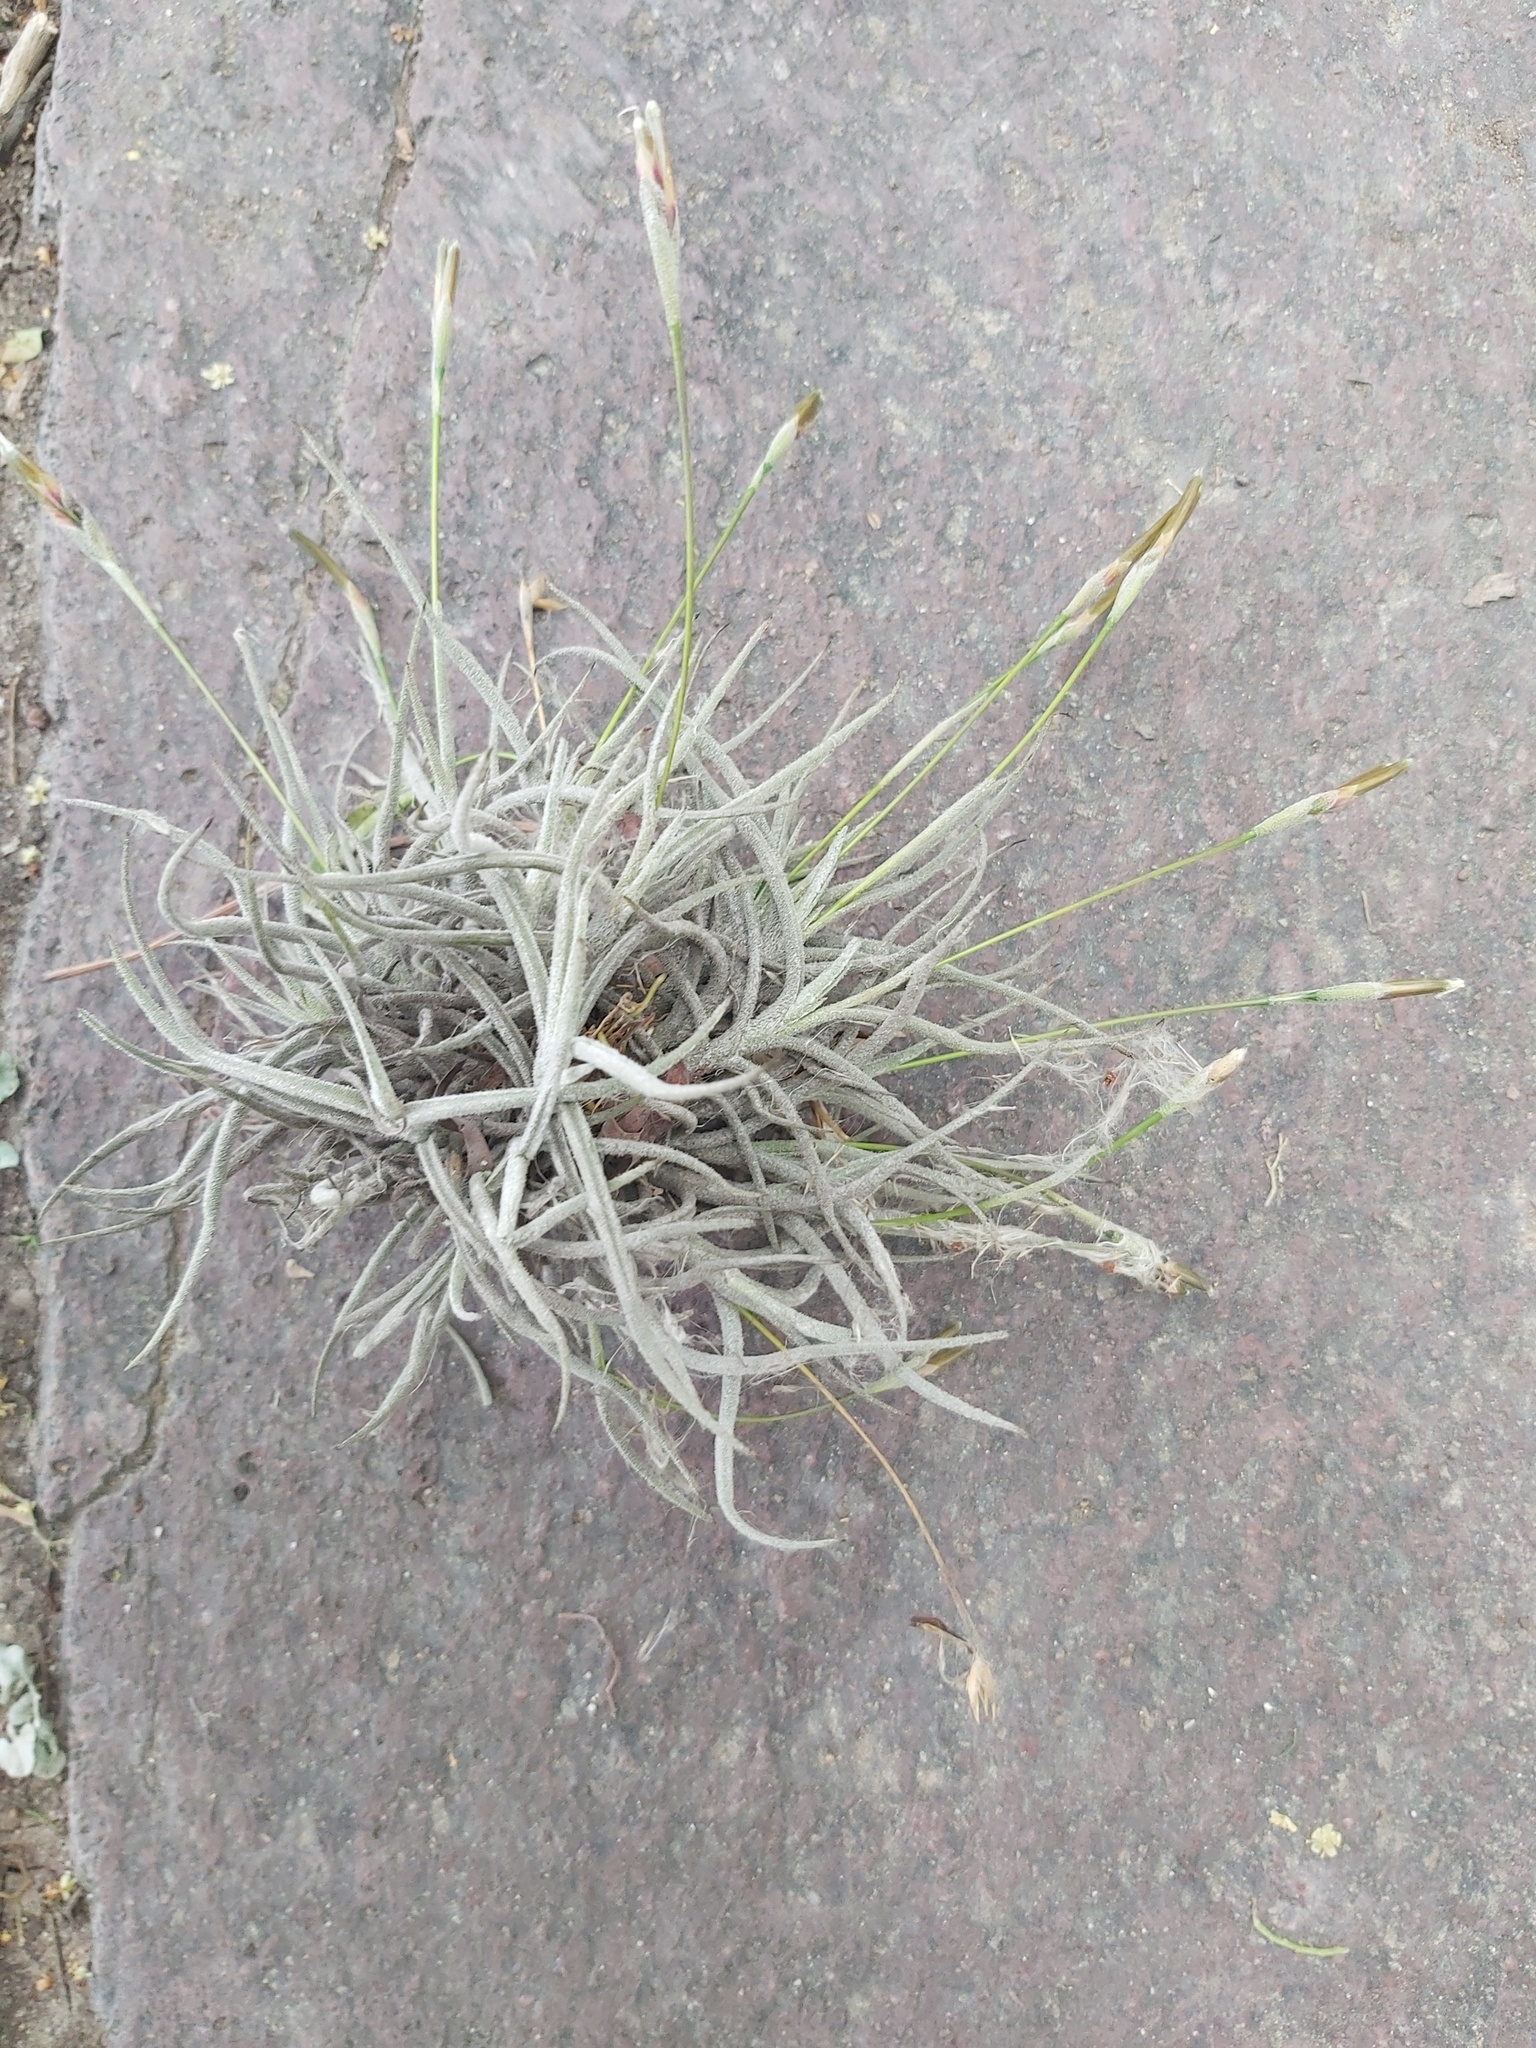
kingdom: Plantae
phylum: Tracheophyta
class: Liliopsida
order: Poales
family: Bromeliaceae
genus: Tillandsia
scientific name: Tillandsia recurvata
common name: Small ballmoss
